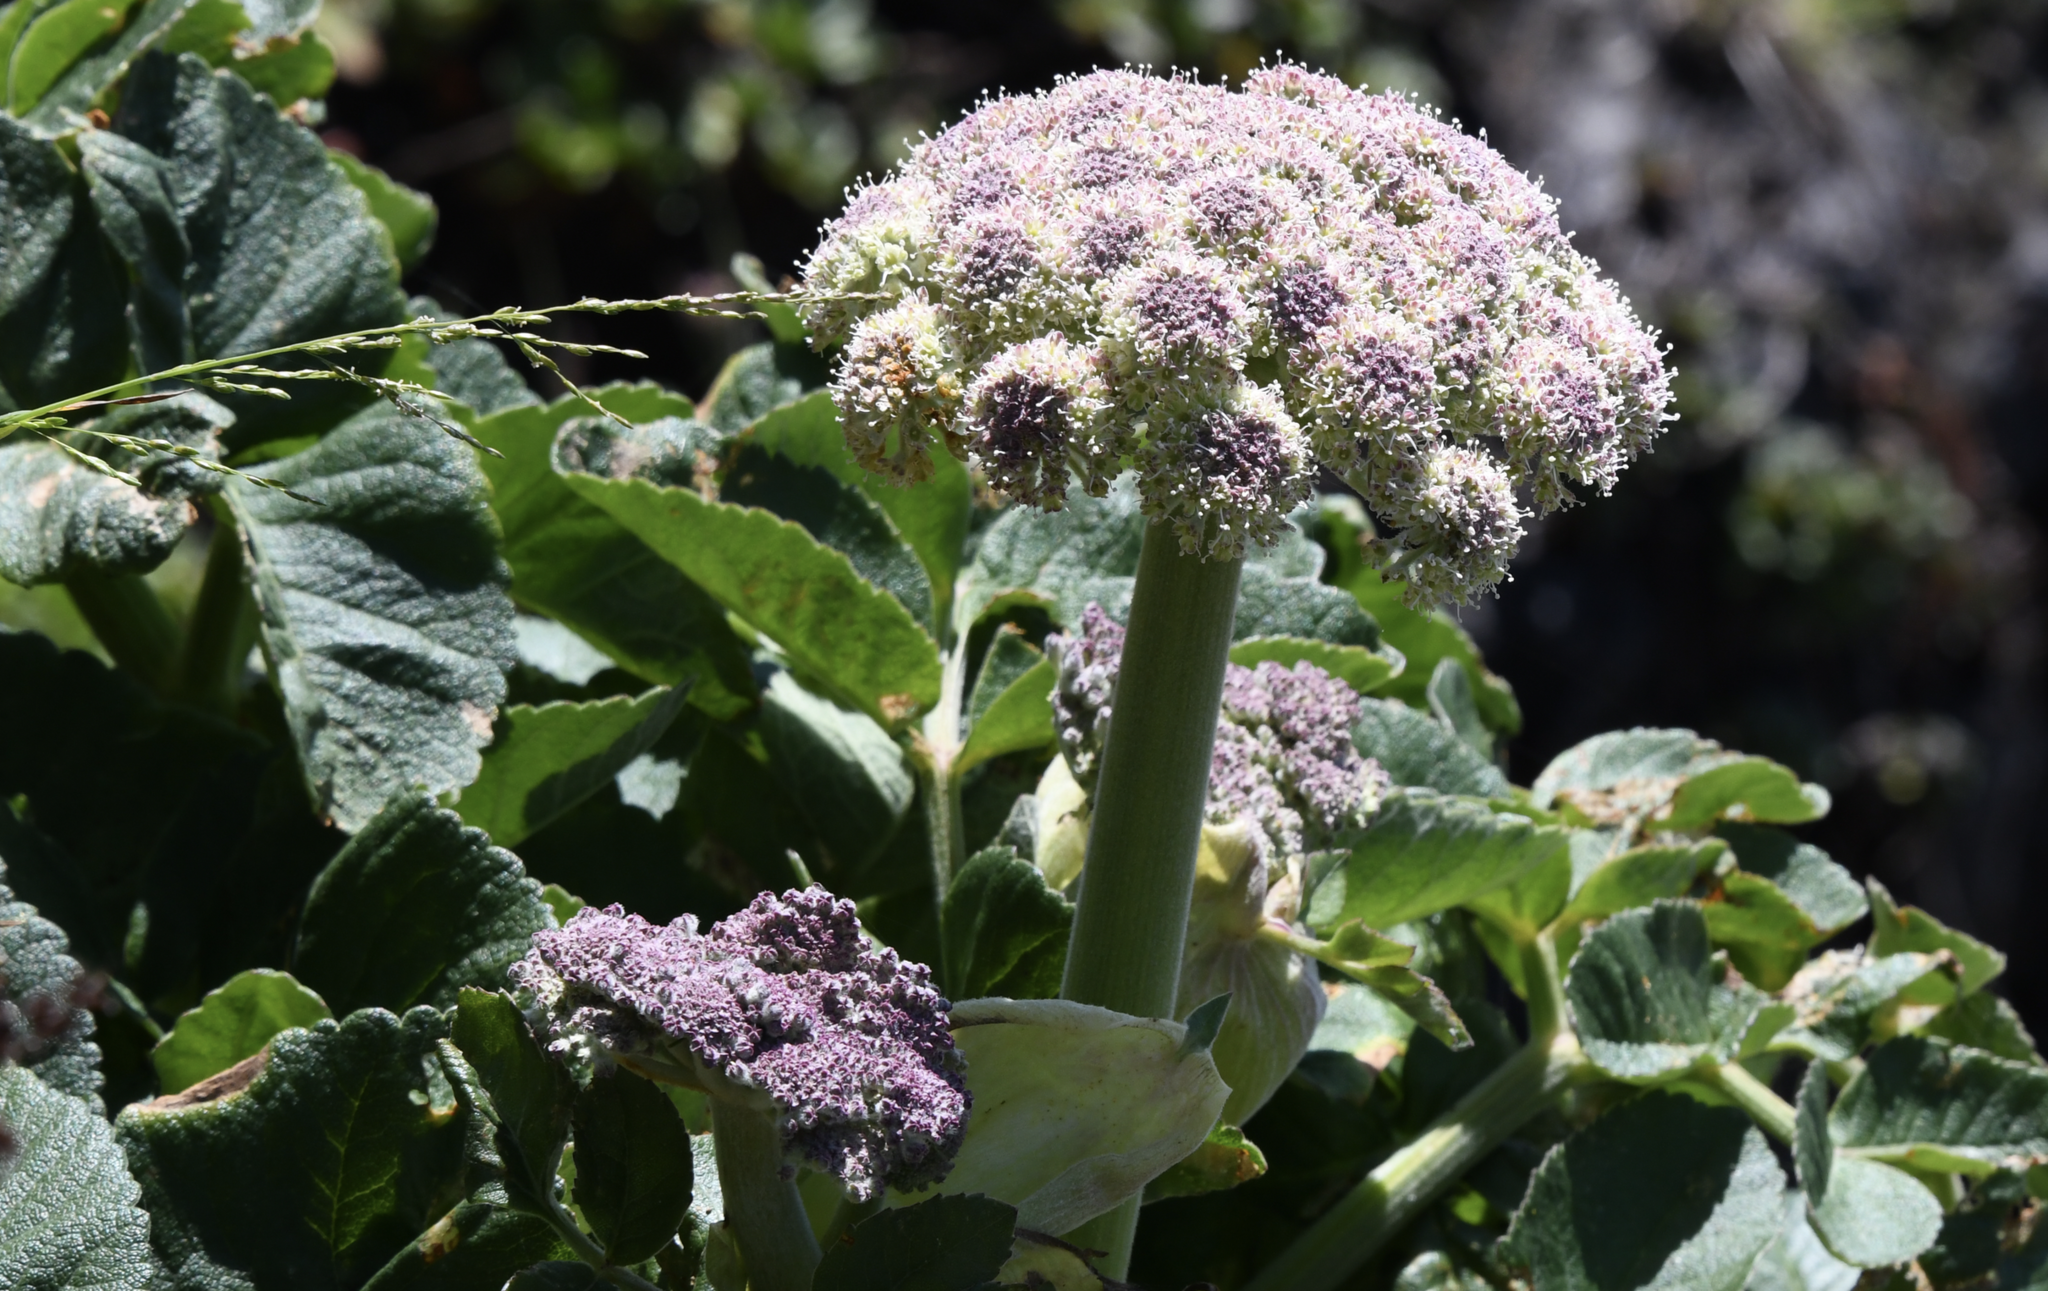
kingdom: Plantae
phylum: Tracheophyta
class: Magnoliopsida
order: Apiales
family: Apiaceae
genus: Angelica
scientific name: Angelica hendersonii
